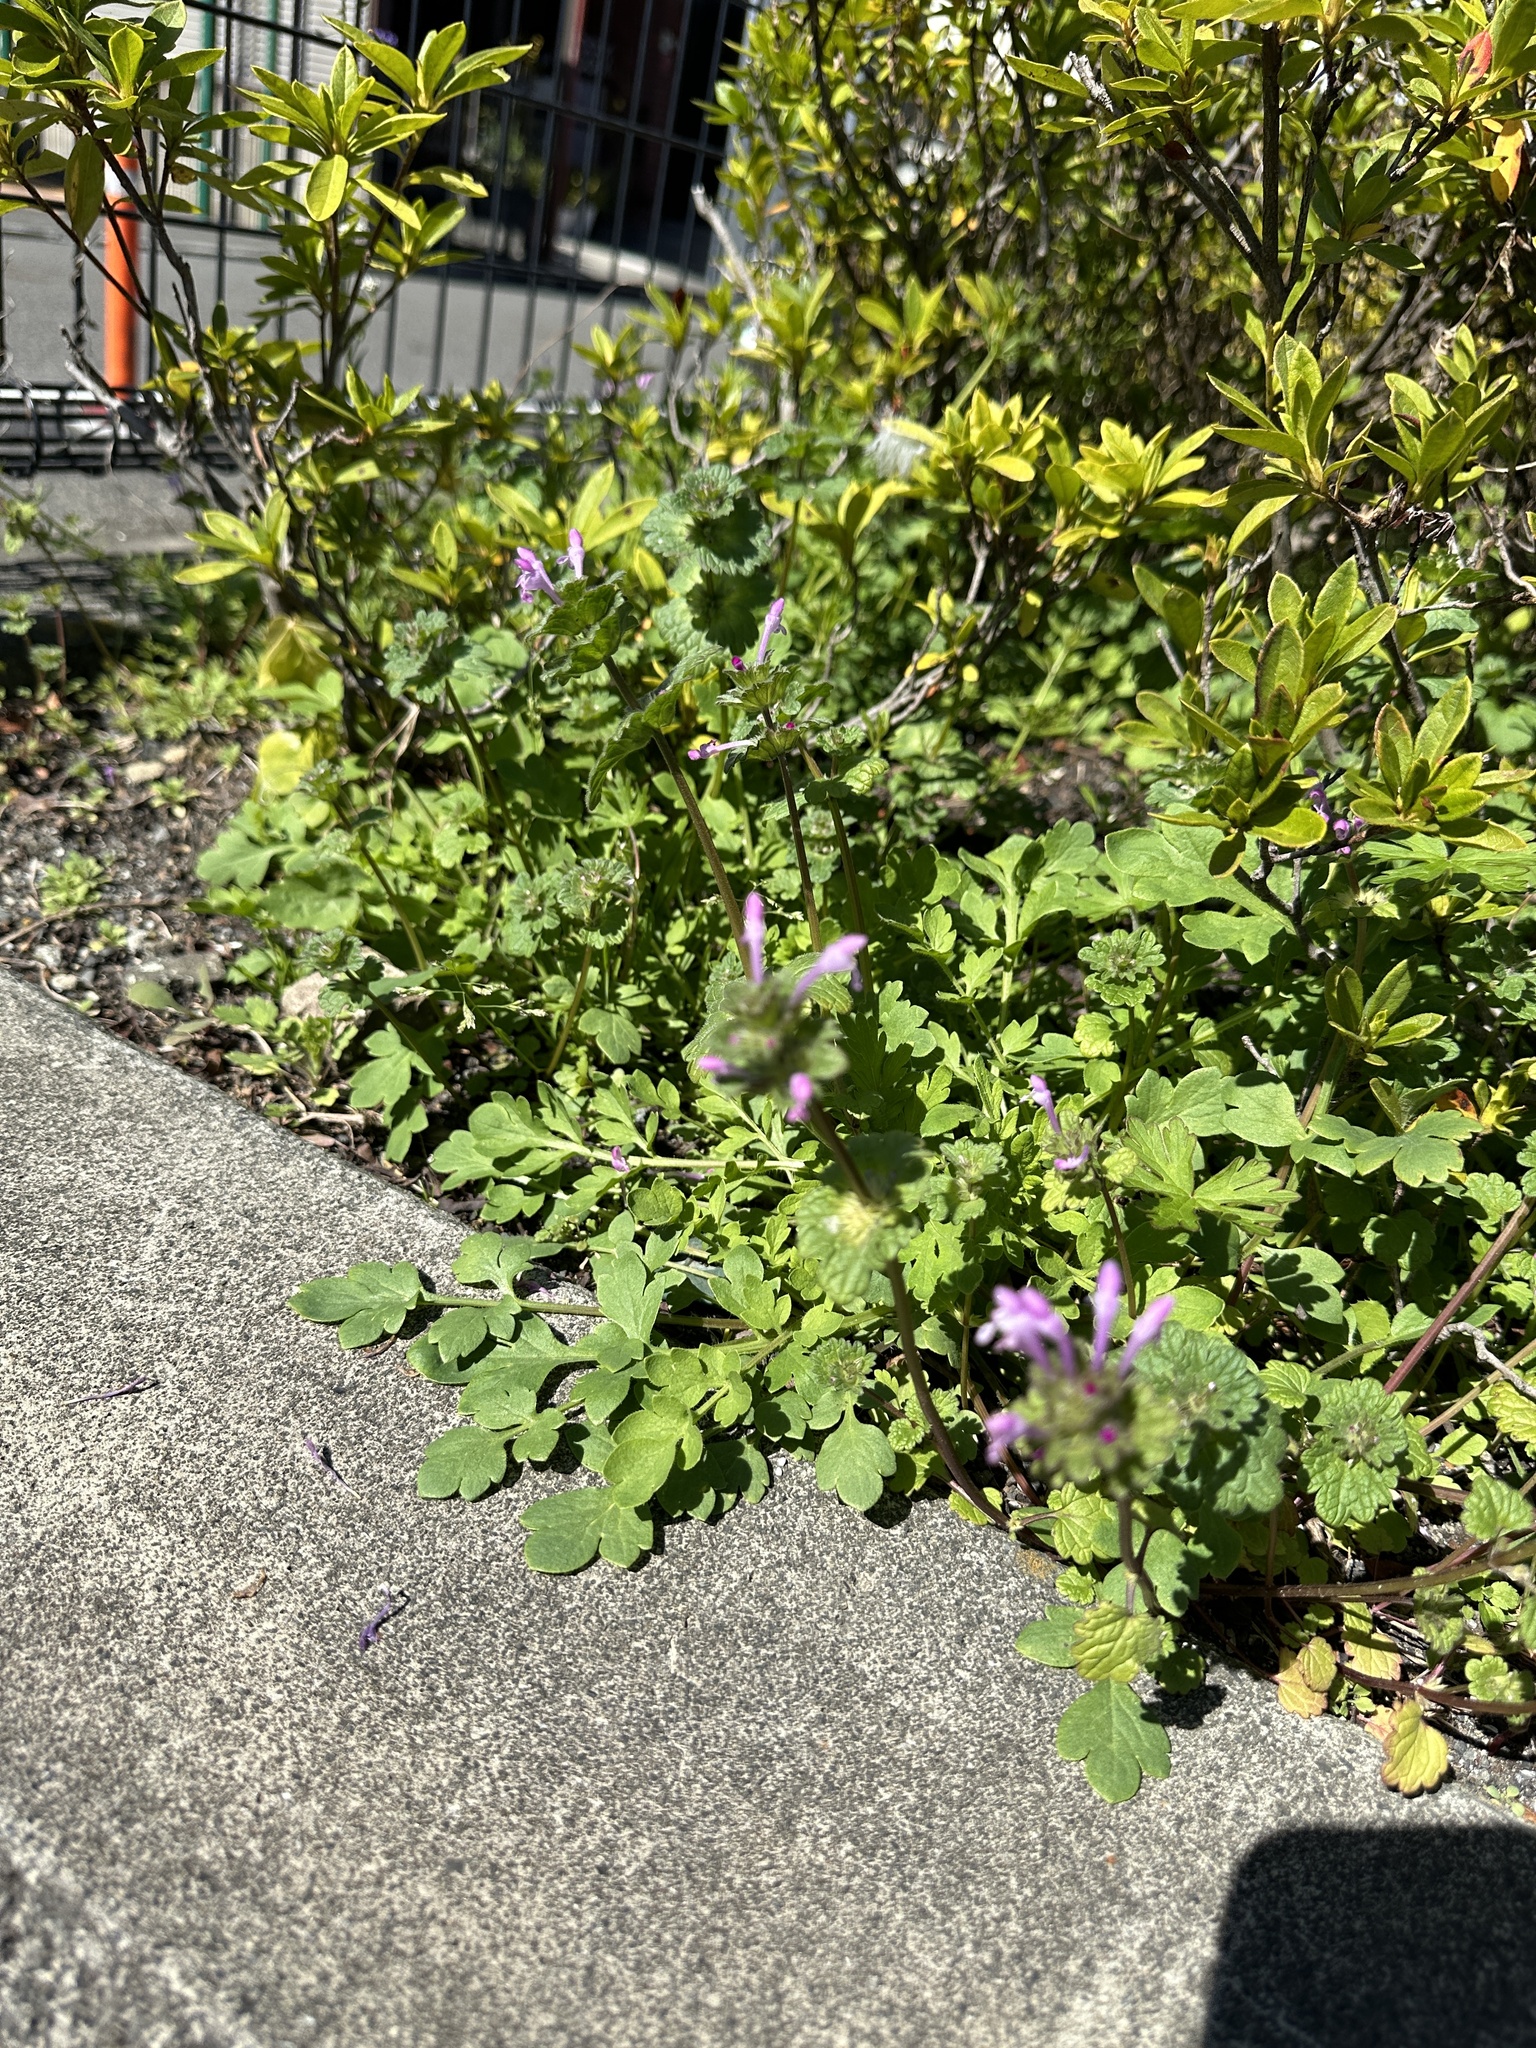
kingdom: Plantae
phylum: Tracheophyta
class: Magnoliopsida
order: Lamiales
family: Lamiaceae
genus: Lamium
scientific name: Lamium amplexicaule
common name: Henbit dead-nettle
